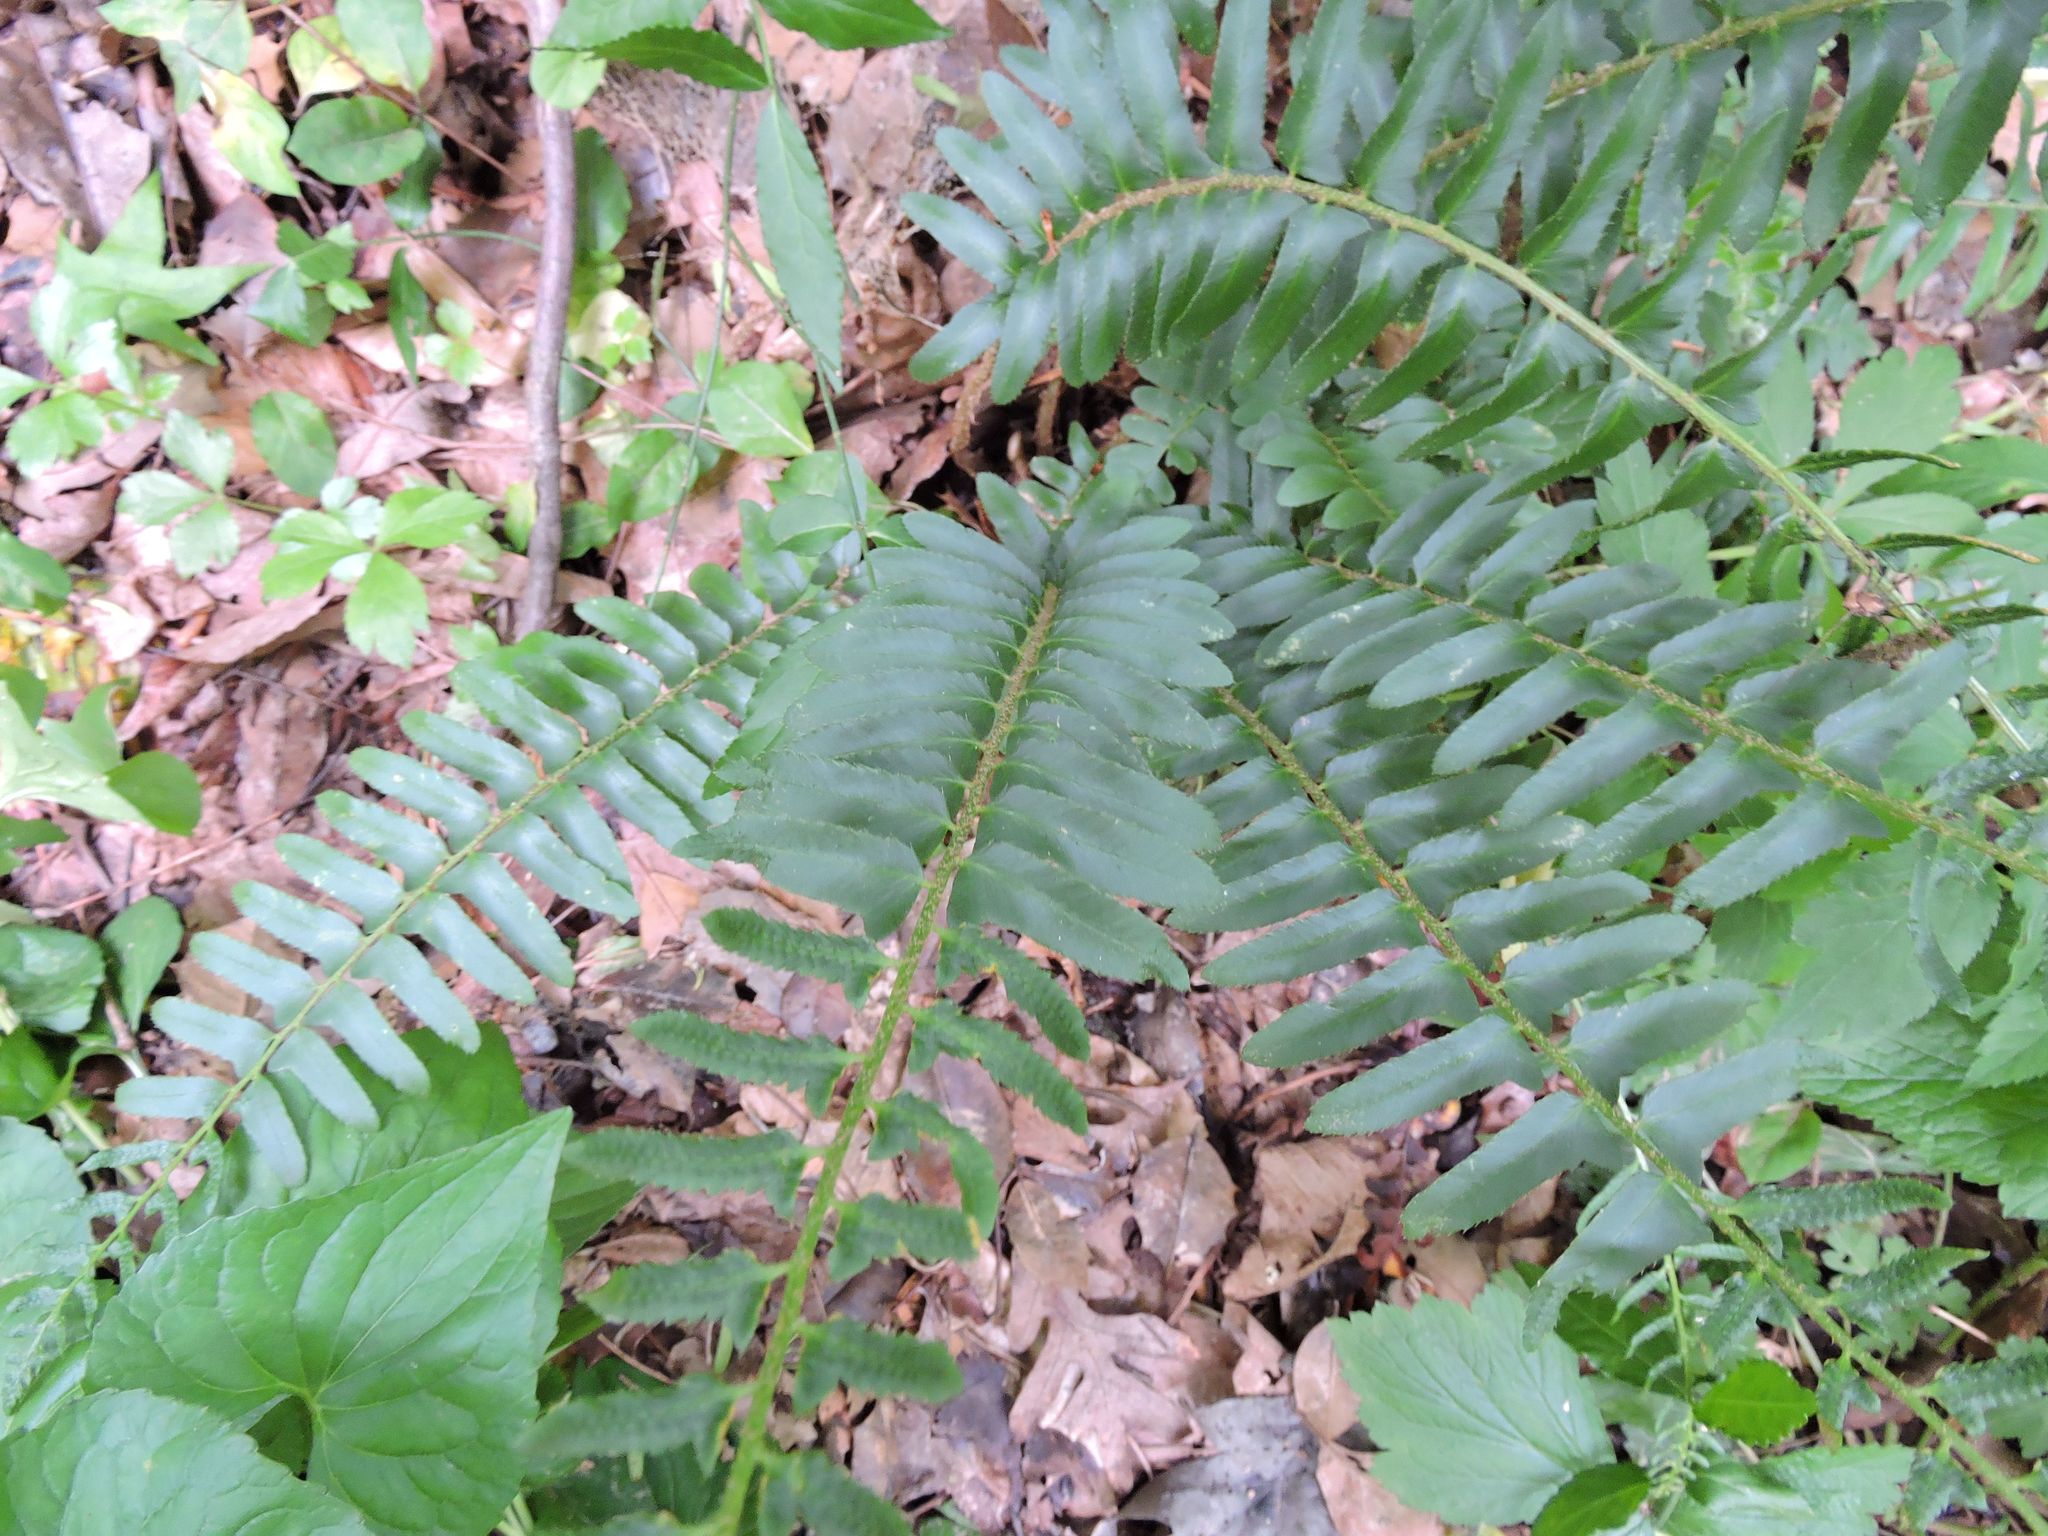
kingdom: Plantae
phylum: Tracheophyta
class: Polypodiopsida
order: Polypodiales
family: Dryopteridaceae
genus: Polystichum
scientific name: Polystichum acrostichoides
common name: Christmas fern
